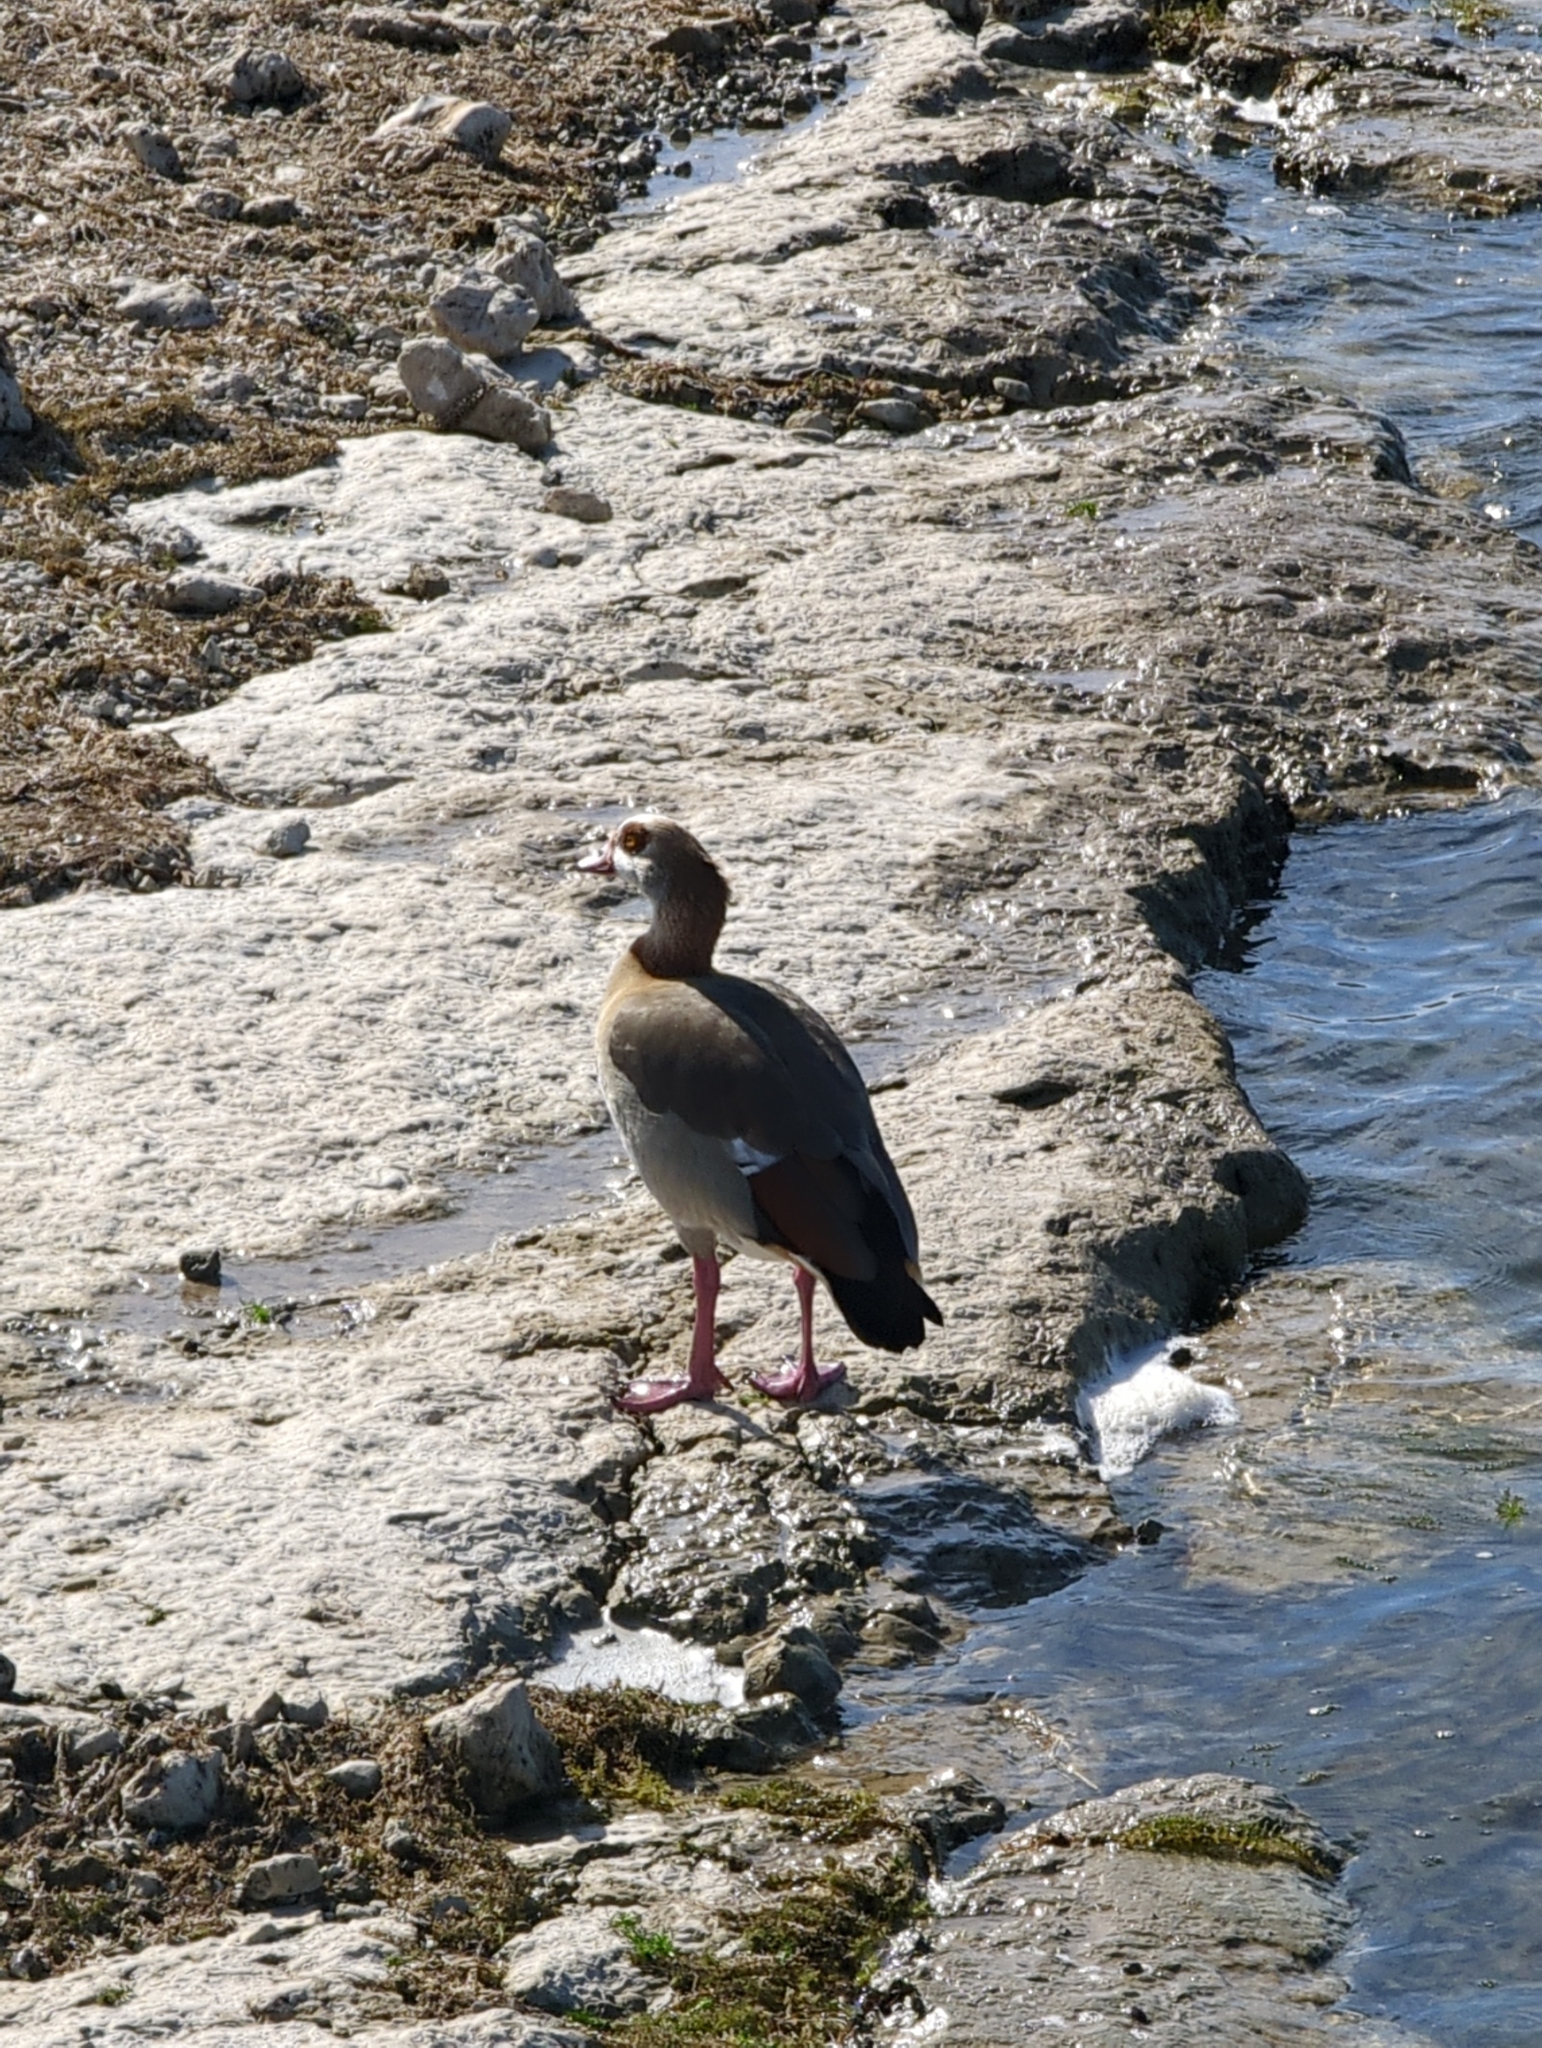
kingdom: Animalia
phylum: Chordata
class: Aves
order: Anseriformes
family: Anatidae
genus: Alopochen
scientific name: Alopochen aegyptiaca
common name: Egyptian goose
